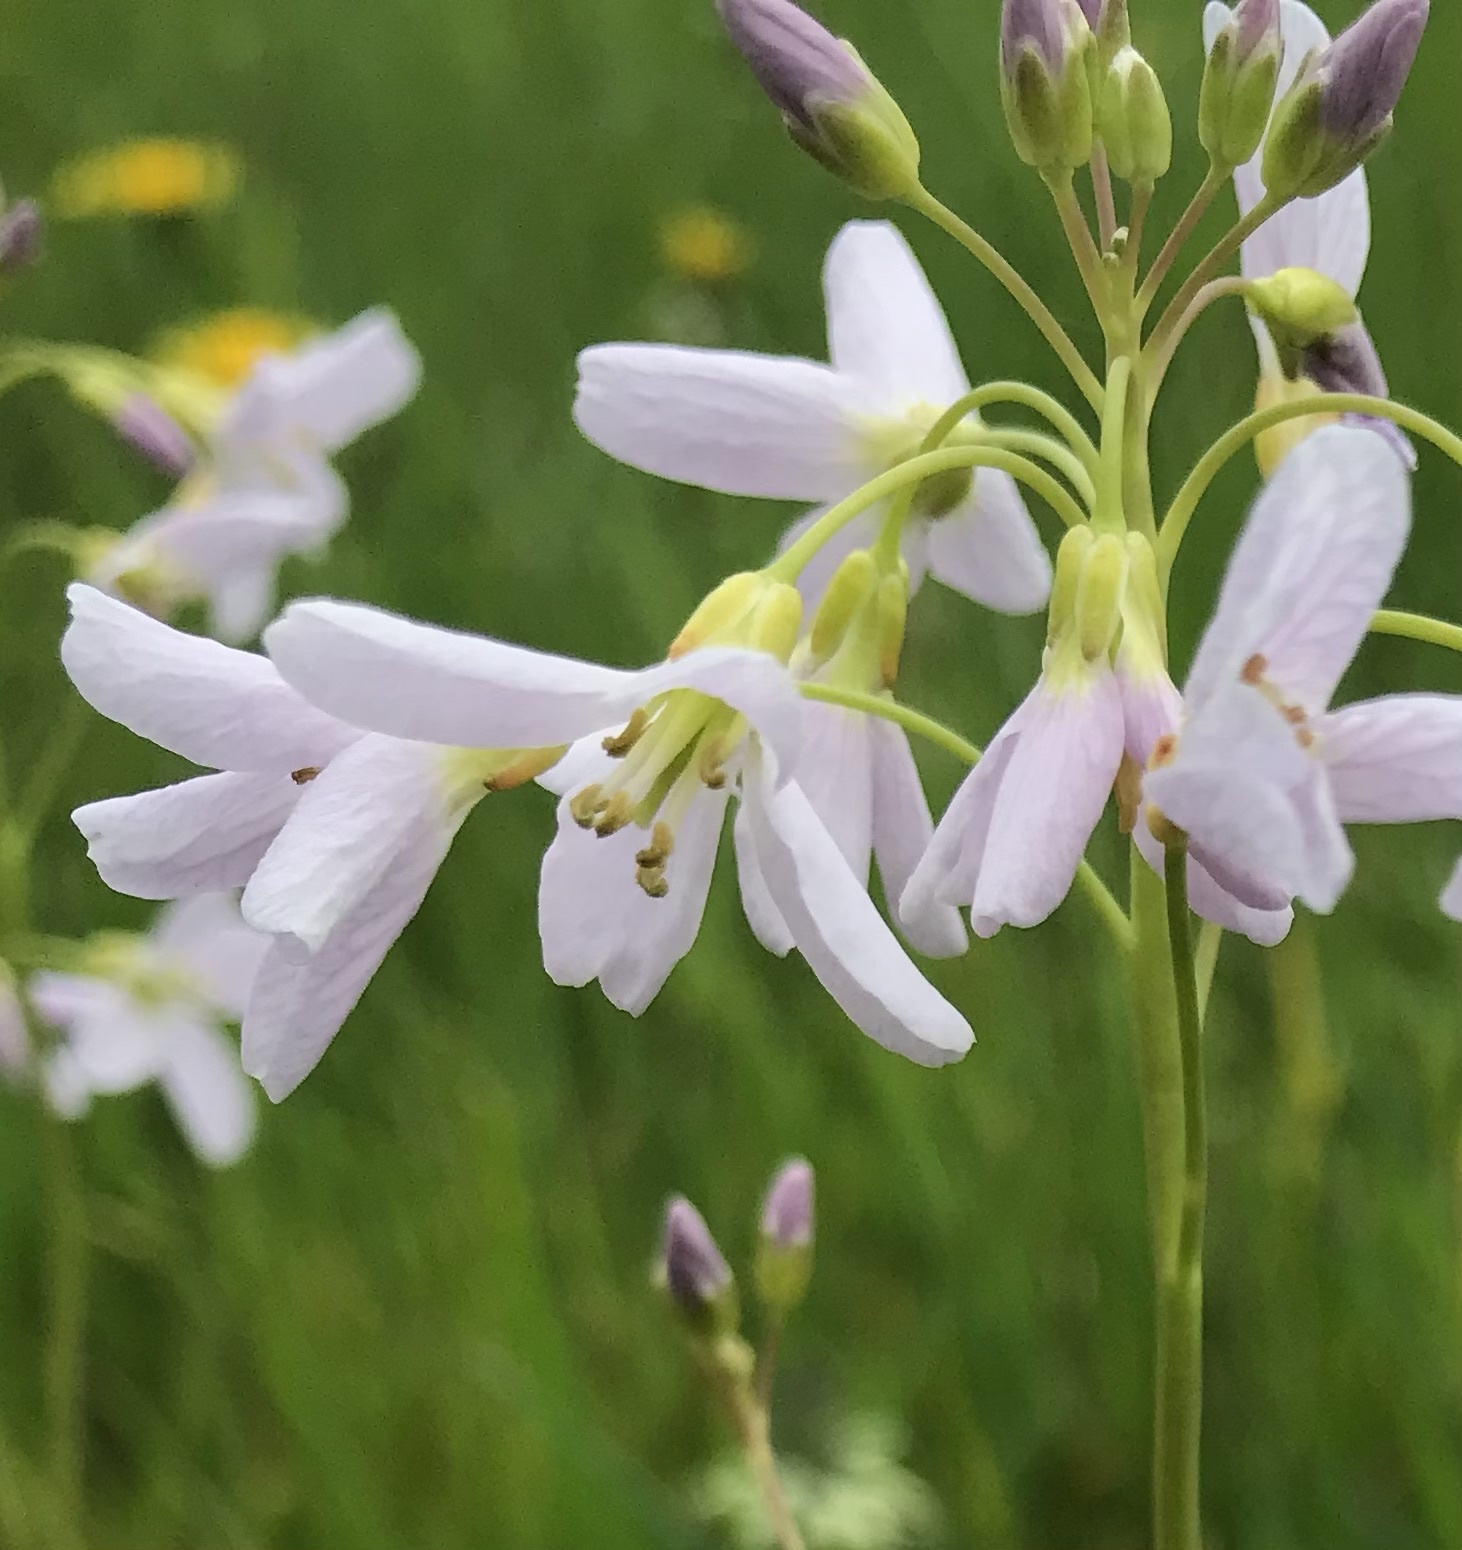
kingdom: Plantae
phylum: Tracheophyta
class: Magnoliopsida
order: Brassicales
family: Brassicaceae
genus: Cardamine
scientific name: Cardamine pratensis
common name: Cuckoo flower
